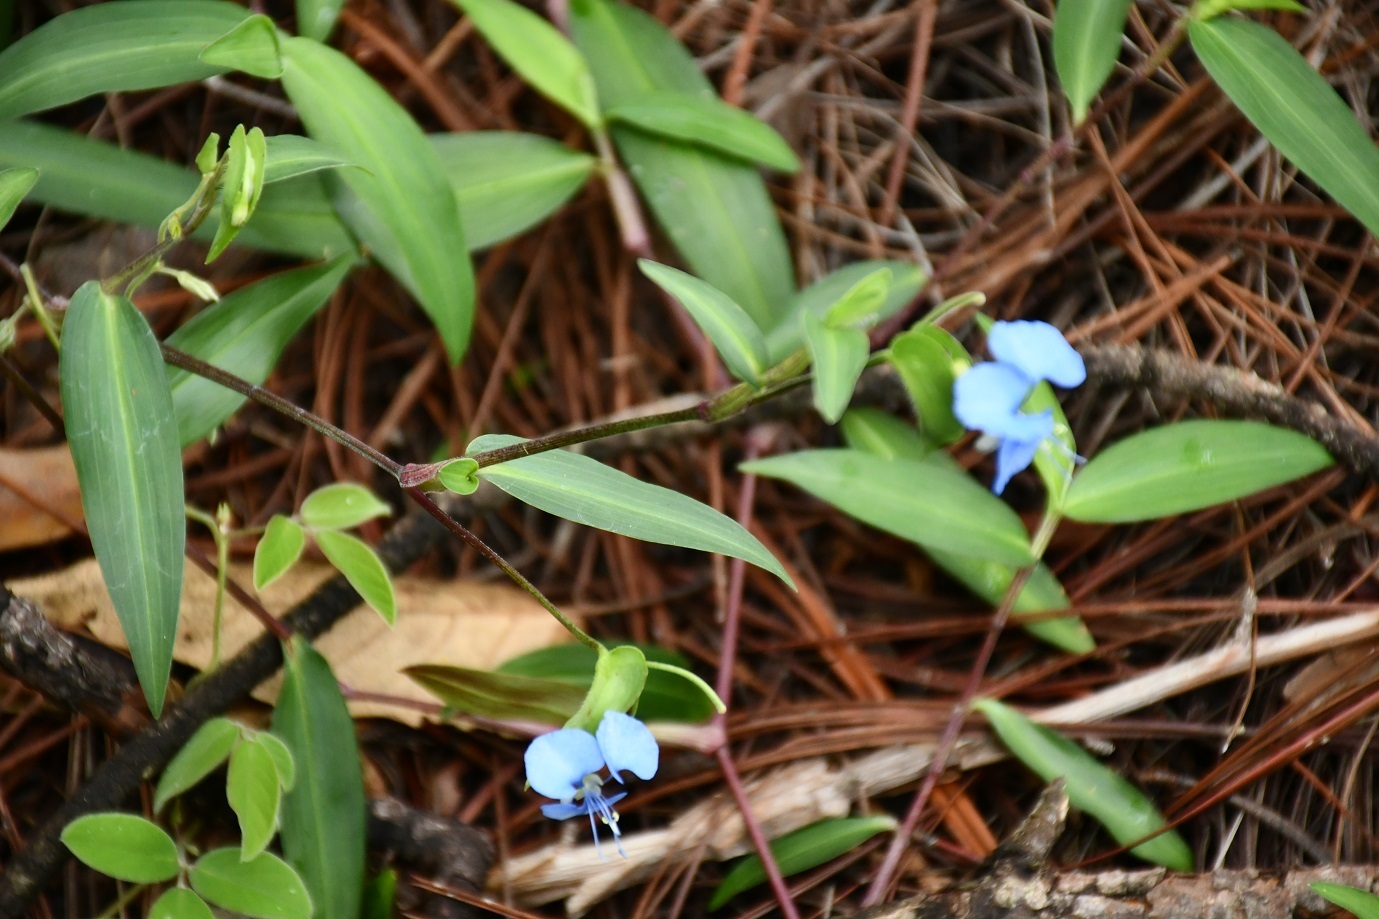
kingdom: Plantae
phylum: Tracheophyta
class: Liliopsida
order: Commelinales
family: Commelinaceae
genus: Commelina
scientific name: Commelina diffusa
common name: Climbing dayflower
